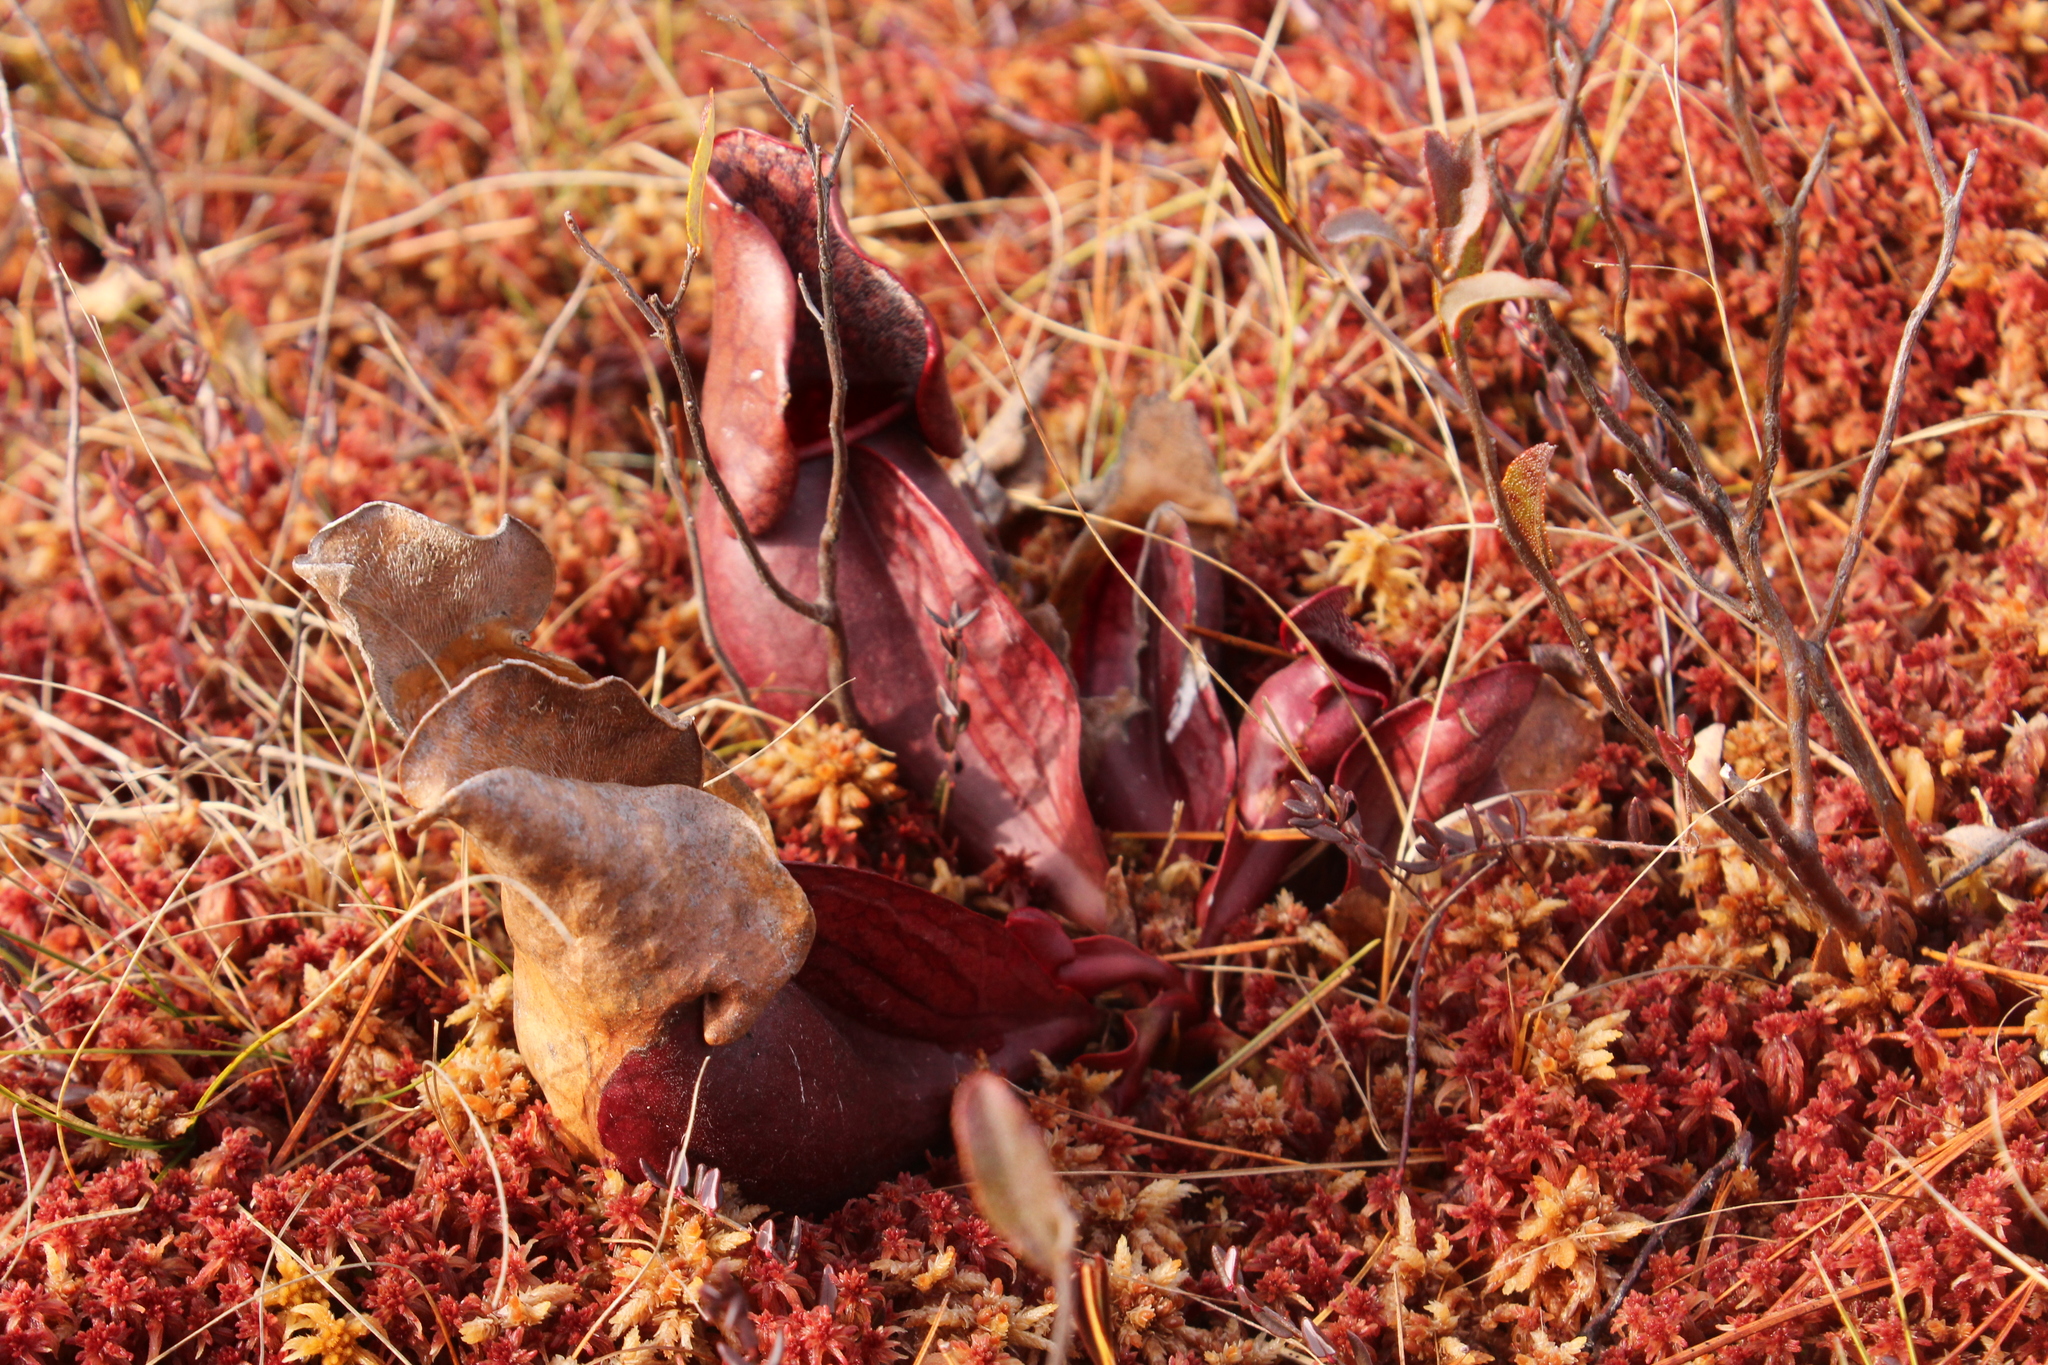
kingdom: Plantae
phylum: Tracheophyta
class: Magnoliopsida
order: Ericales
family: Sarraceniaceae
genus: Sarracenia
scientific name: Sarracenia purpurea
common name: Pitcherplant
